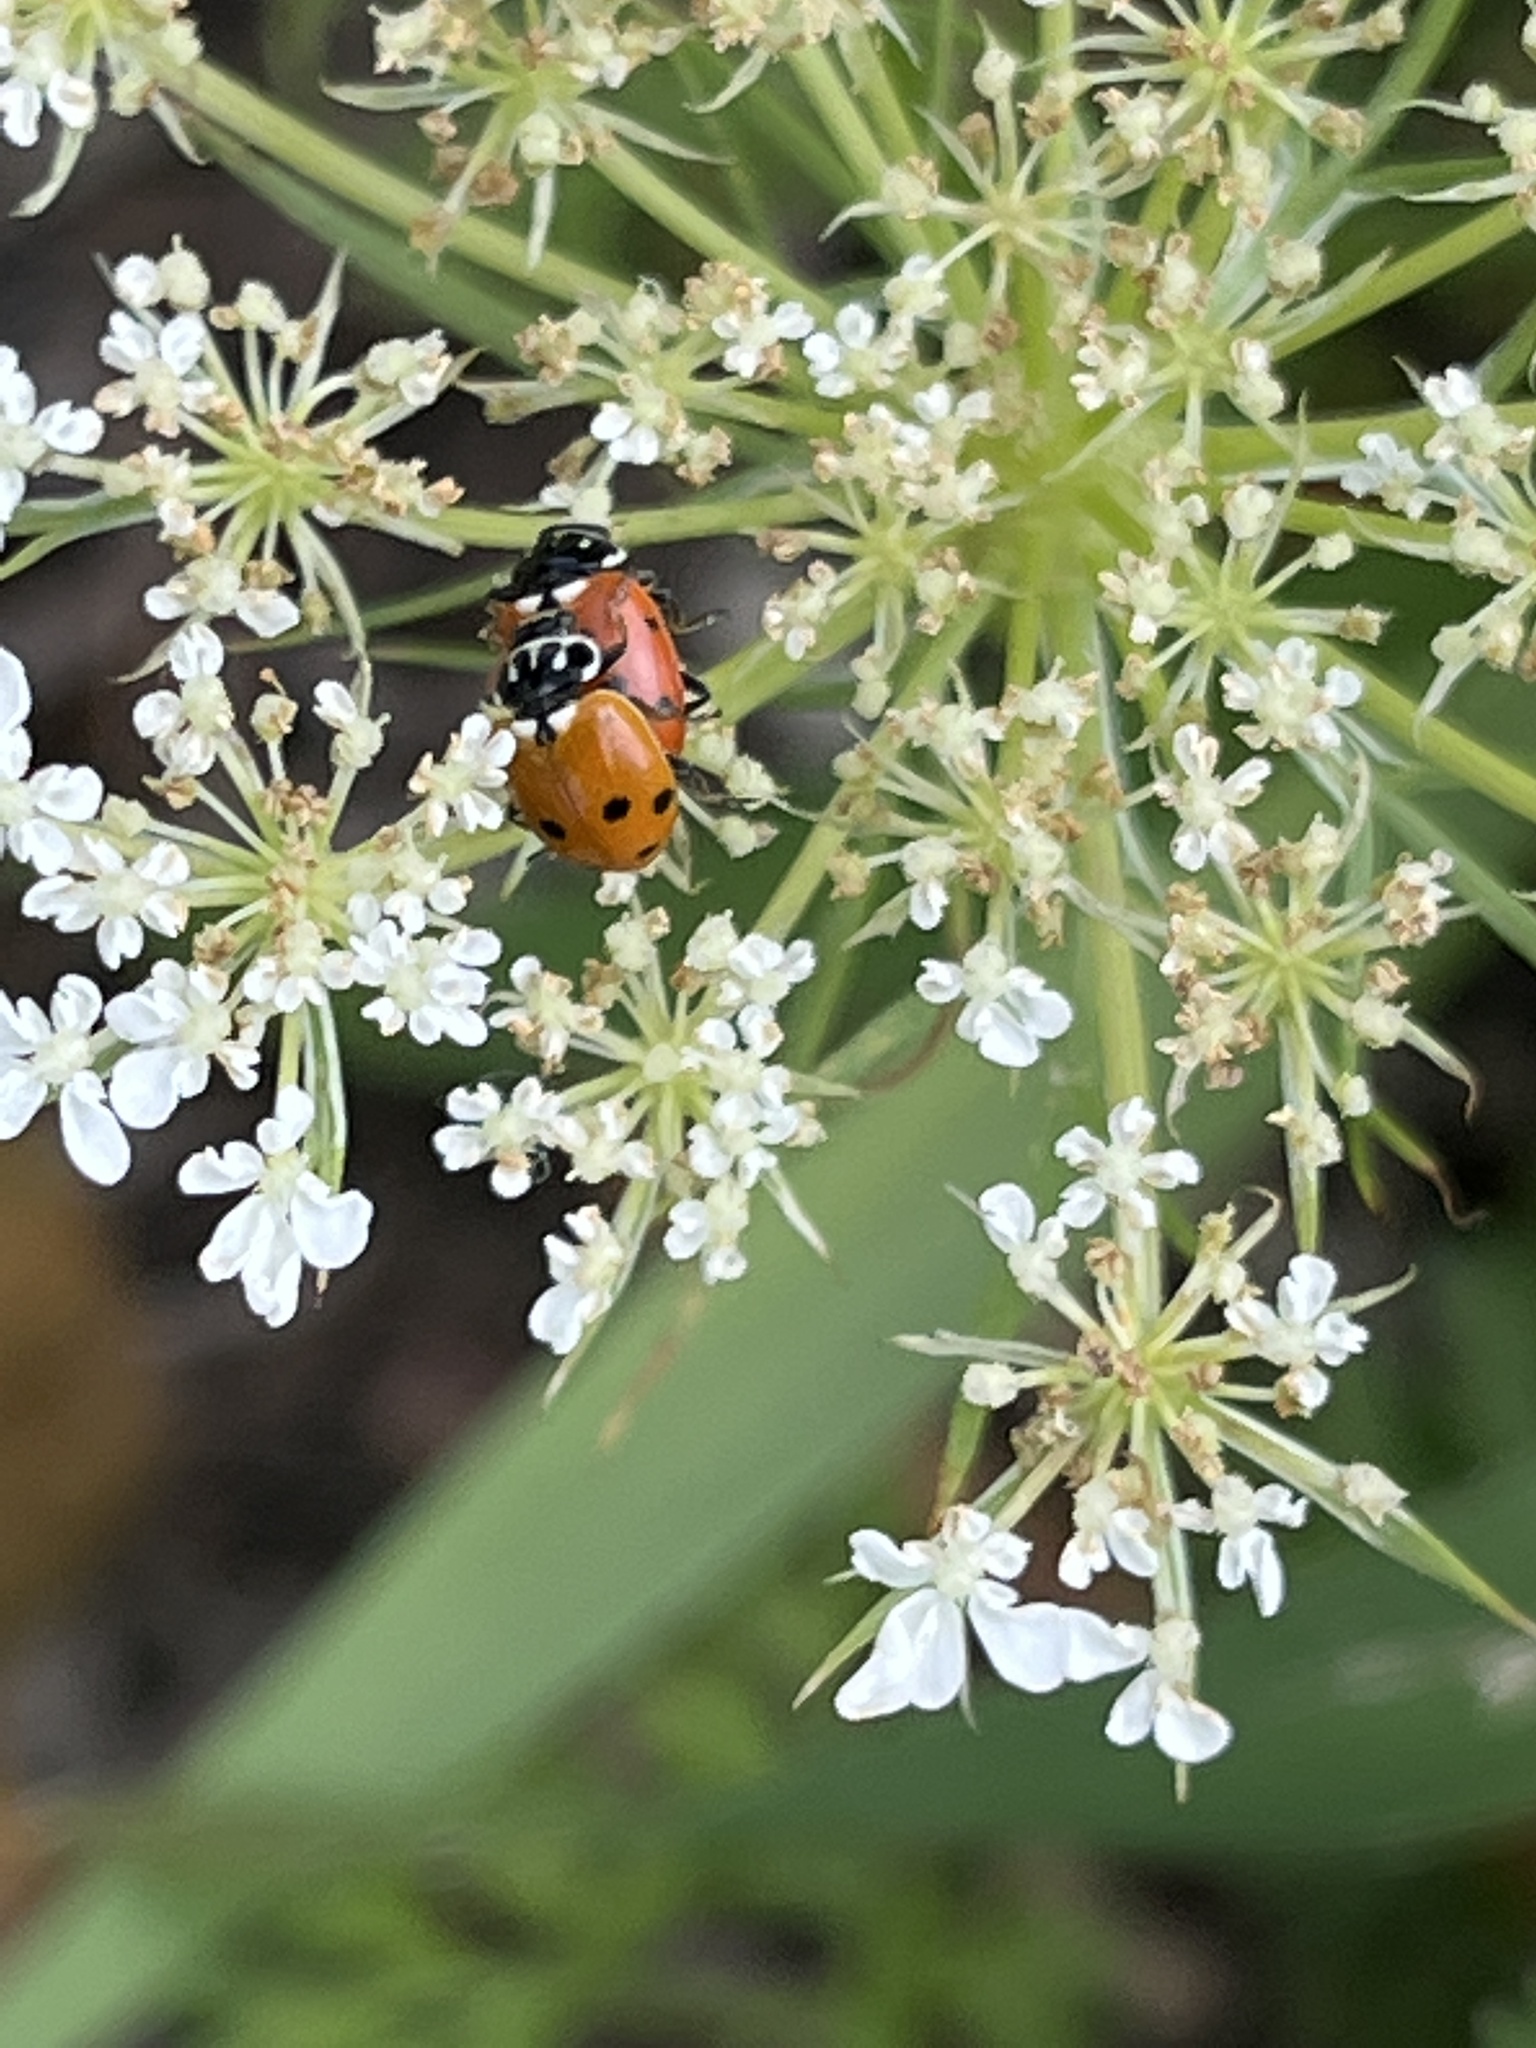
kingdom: Animalia
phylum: Arthropoda
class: Insecta
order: Coleoptera
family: Coccinellidae
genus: Hippodamia
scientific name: Hippodamia variegata
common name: Ladybird beetle
